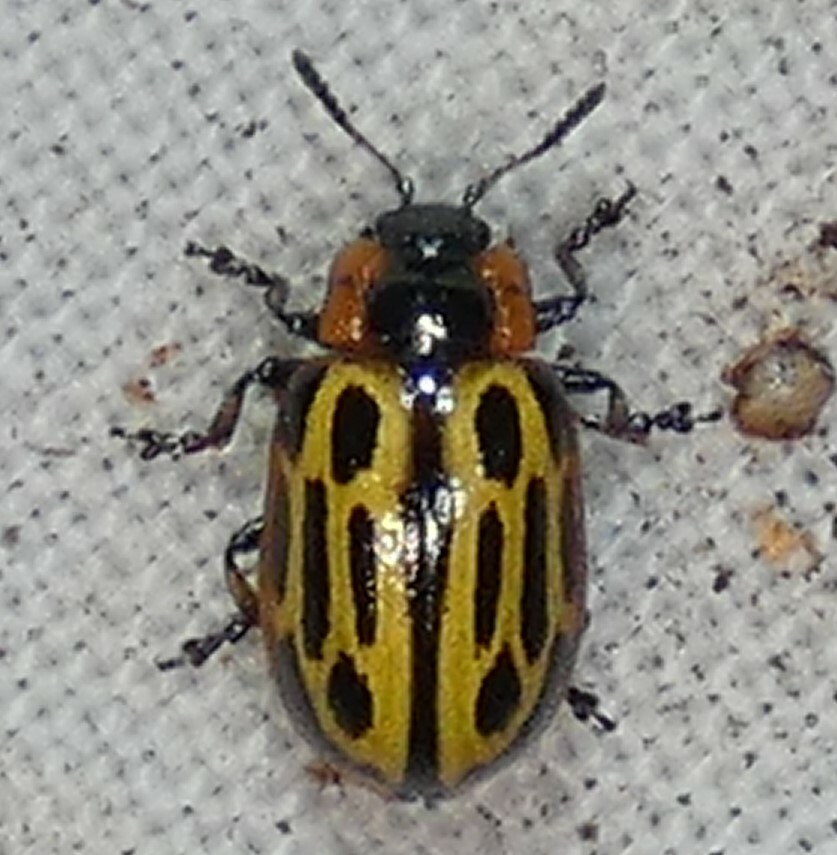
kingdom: Animalia
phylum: Arthropoda
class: Insecta
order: Coleoptera
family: Chrysomelidae
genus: Aethiopocassis
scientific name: Aethiopocassis scripta
